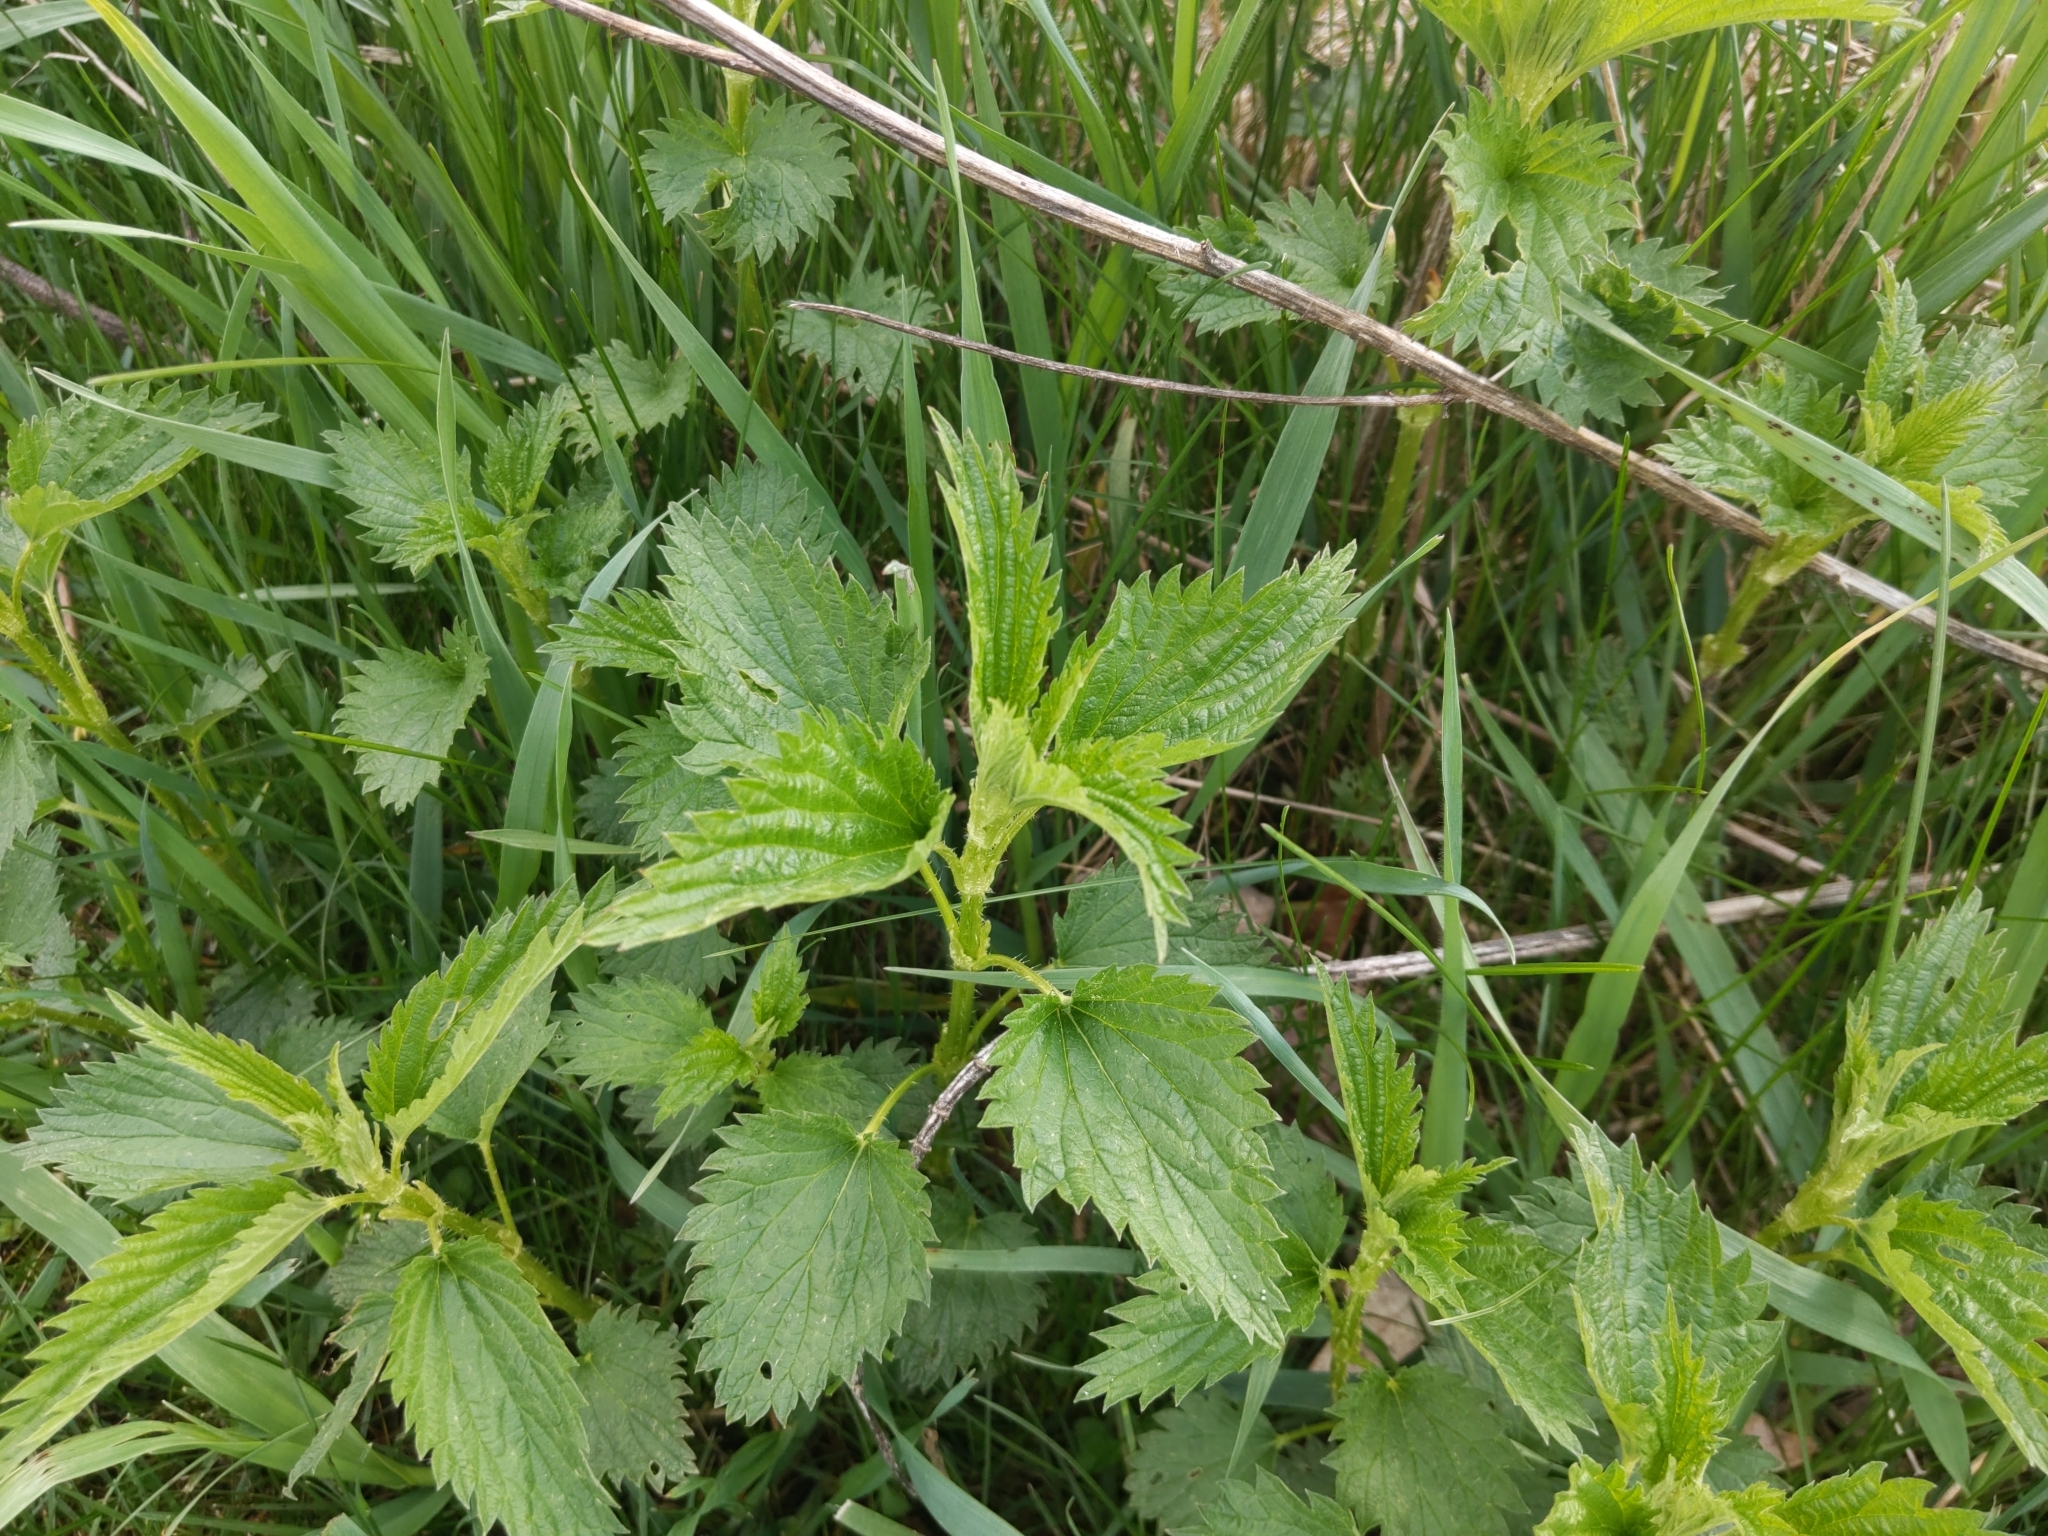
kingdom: Plantae
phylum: Tracheophyta
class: Magnoliopsida
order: Rosales
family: Urticaceae
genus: Urtica
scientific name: Urtica dioica
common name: Common nettle
